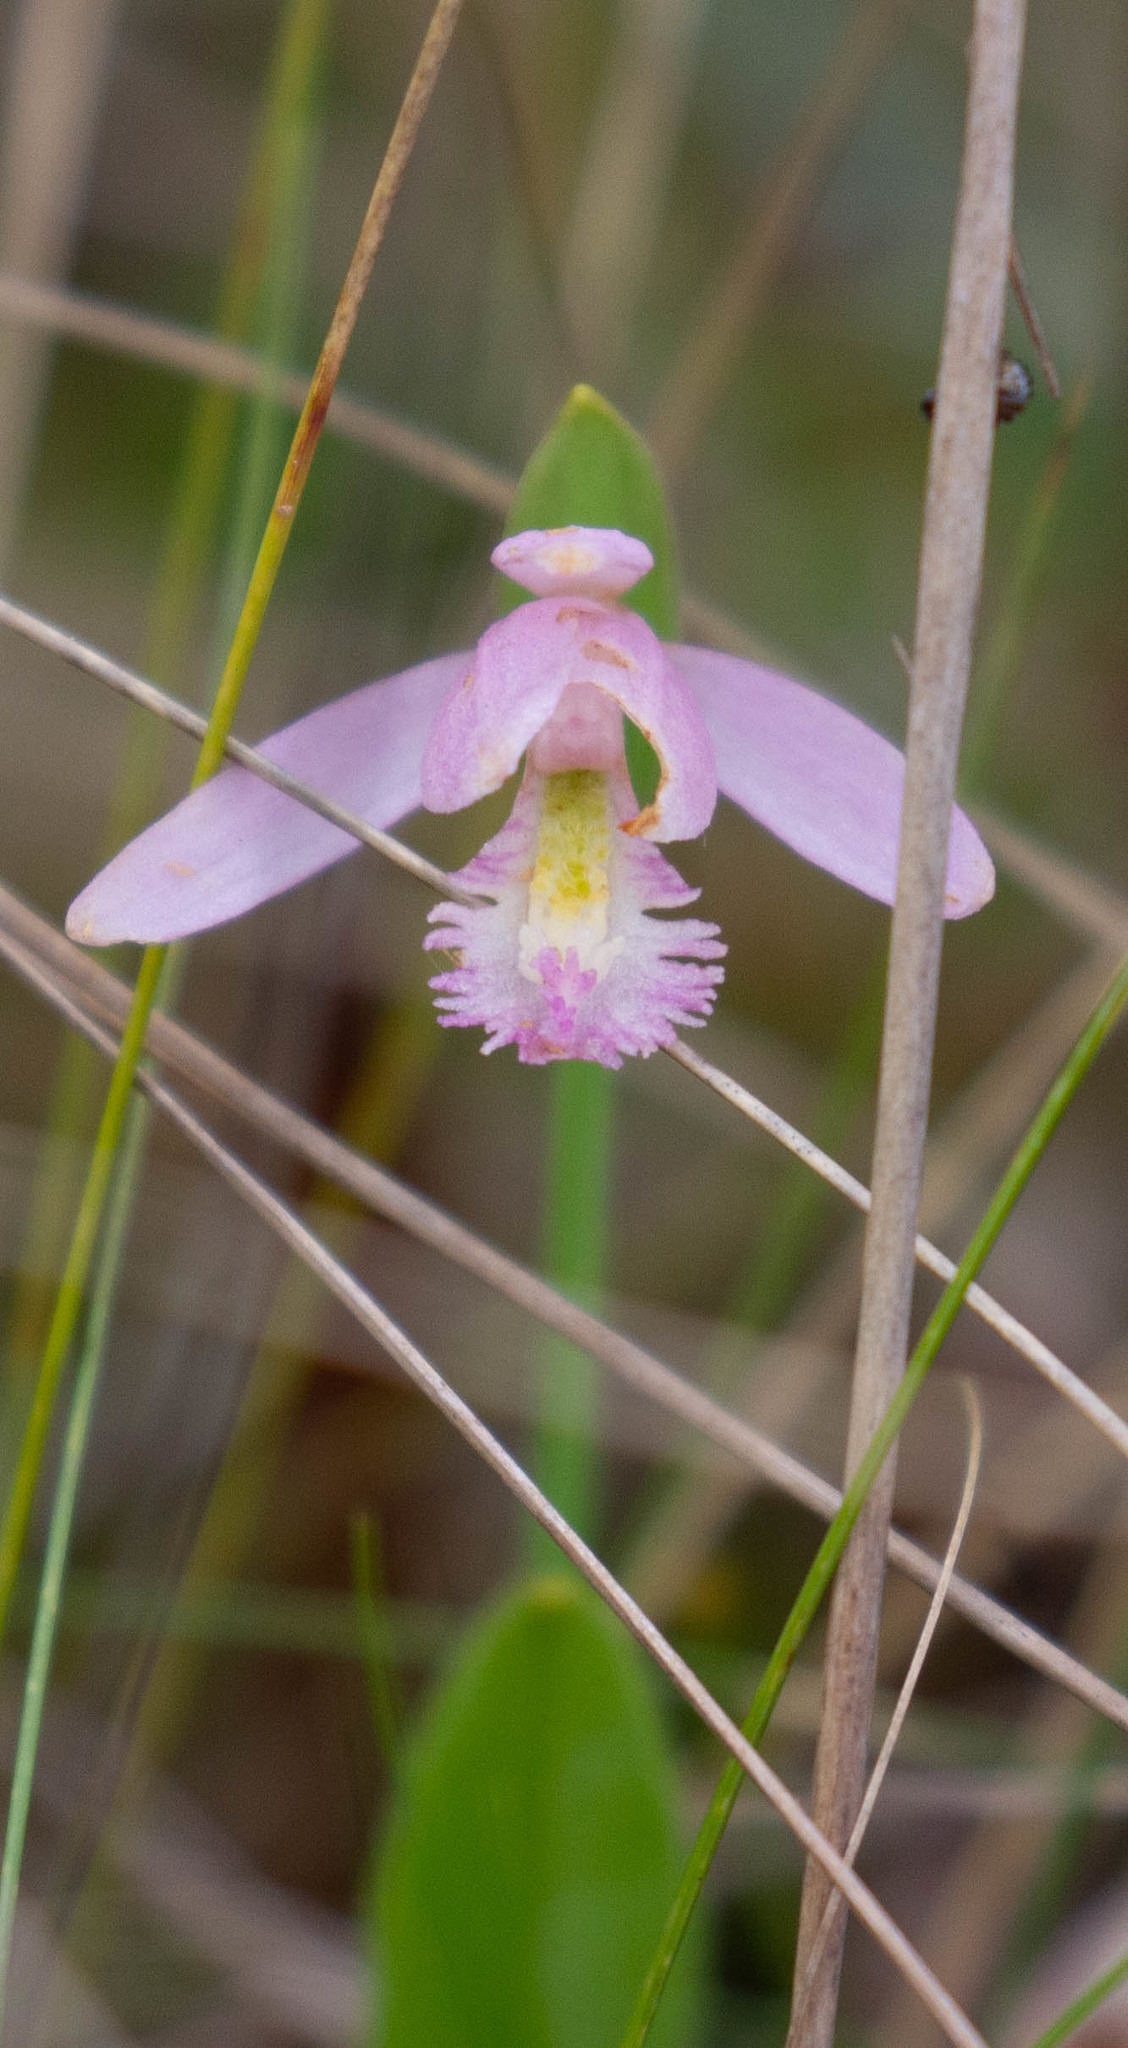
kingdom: Plantae
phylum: Tracheophyta
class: Liliopsida
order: Asparagales
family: Orchidaceae
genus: Pogonia
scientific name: Pogonia ophioglossoides
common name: Rose pogonia
